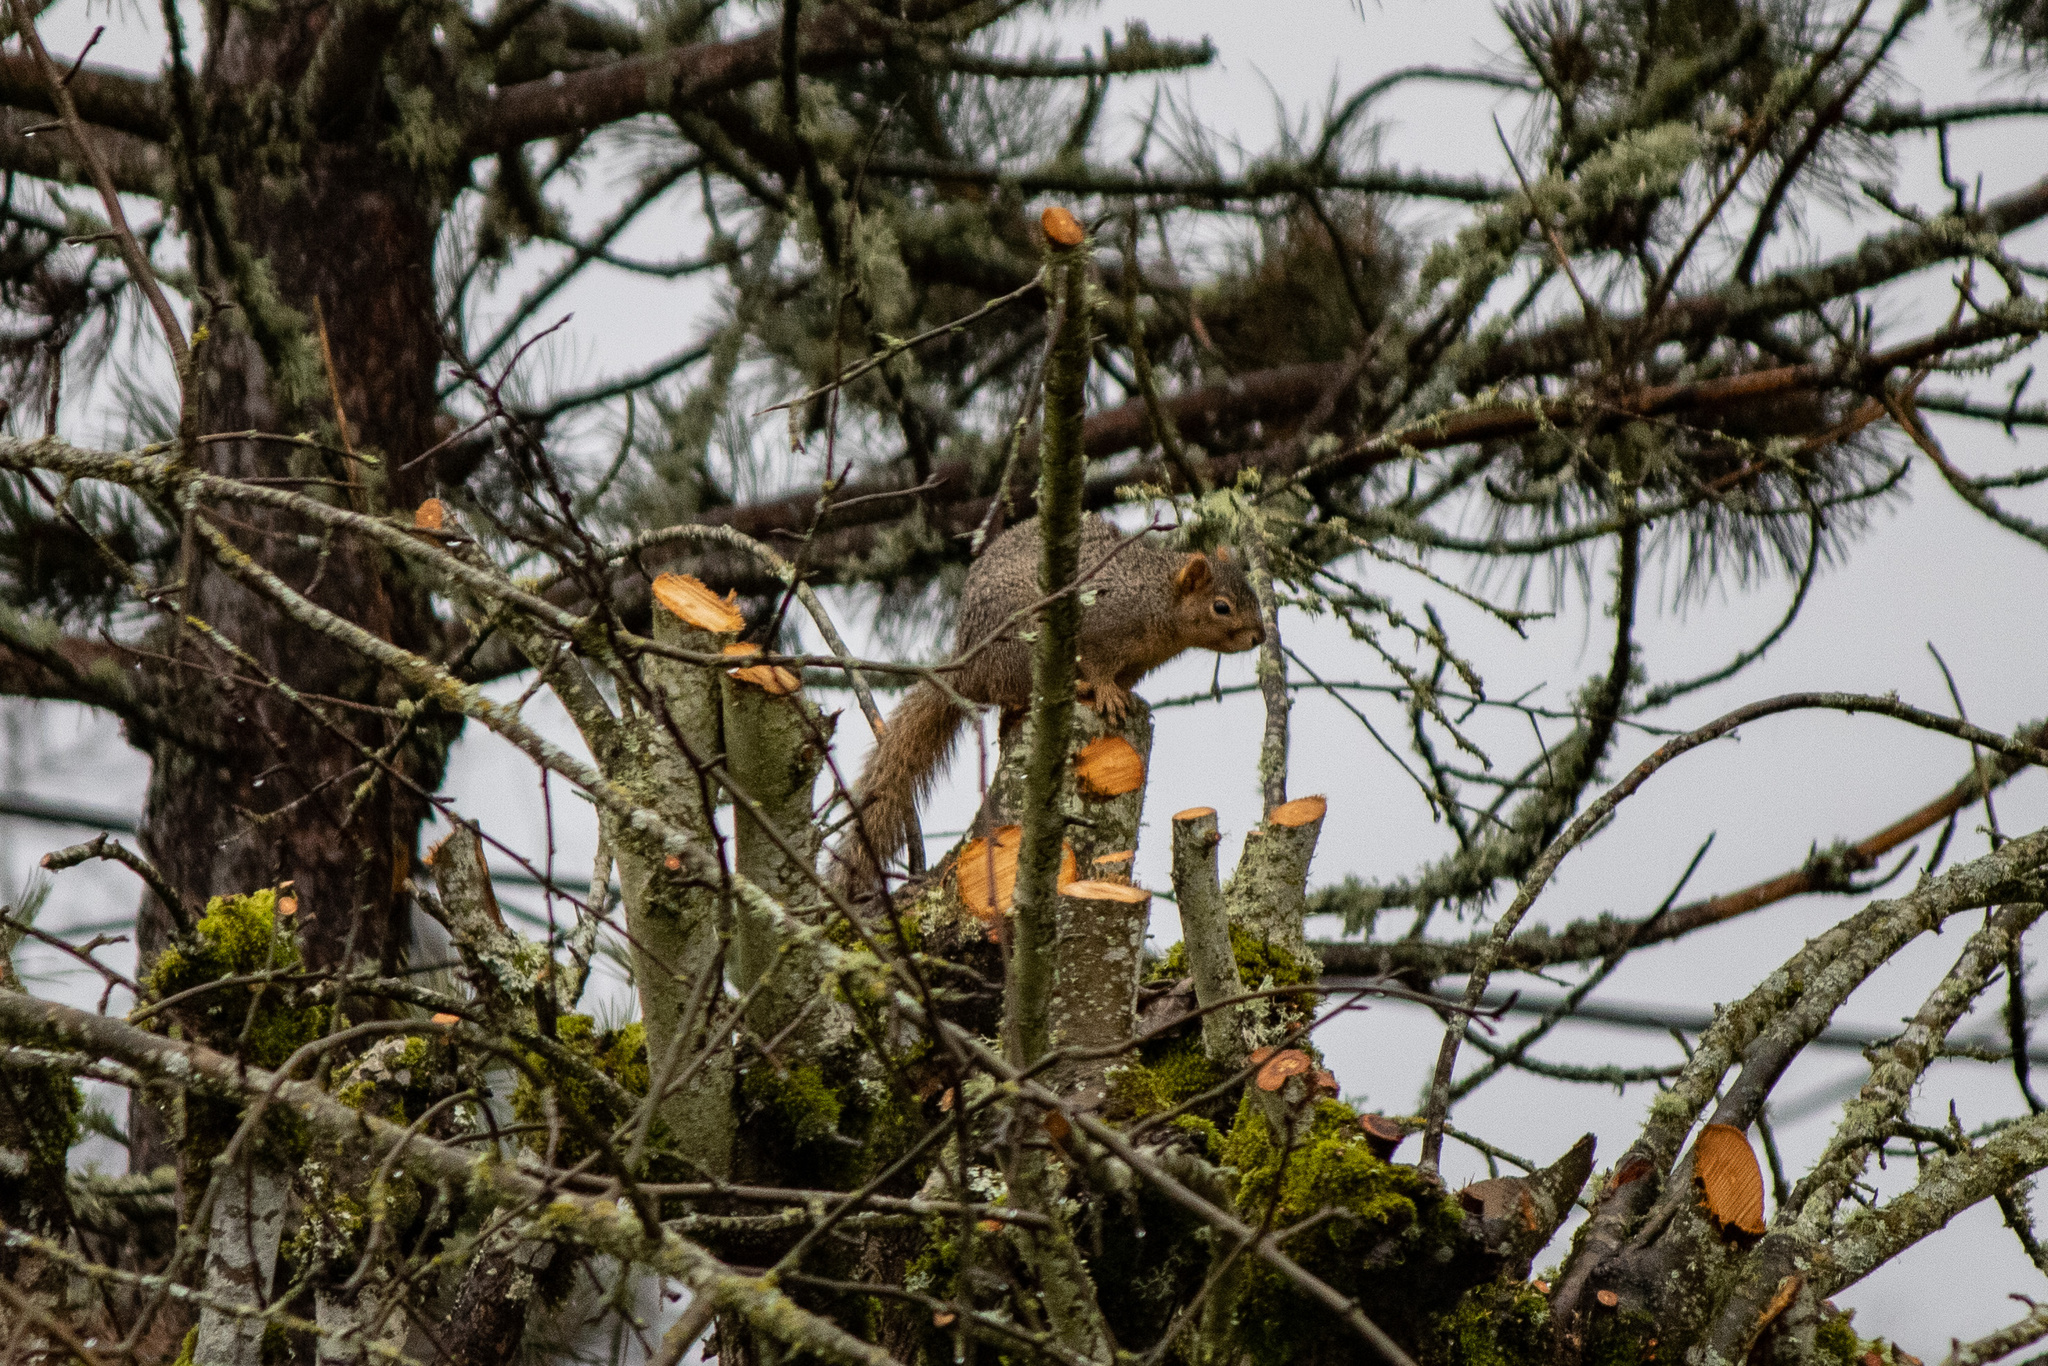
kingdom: Animalia
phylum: Chordata
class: Mammalia
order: Rodentia
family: Sciuridae
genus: Sciurus
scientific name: Sciurus niger
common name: Fox squirrel
